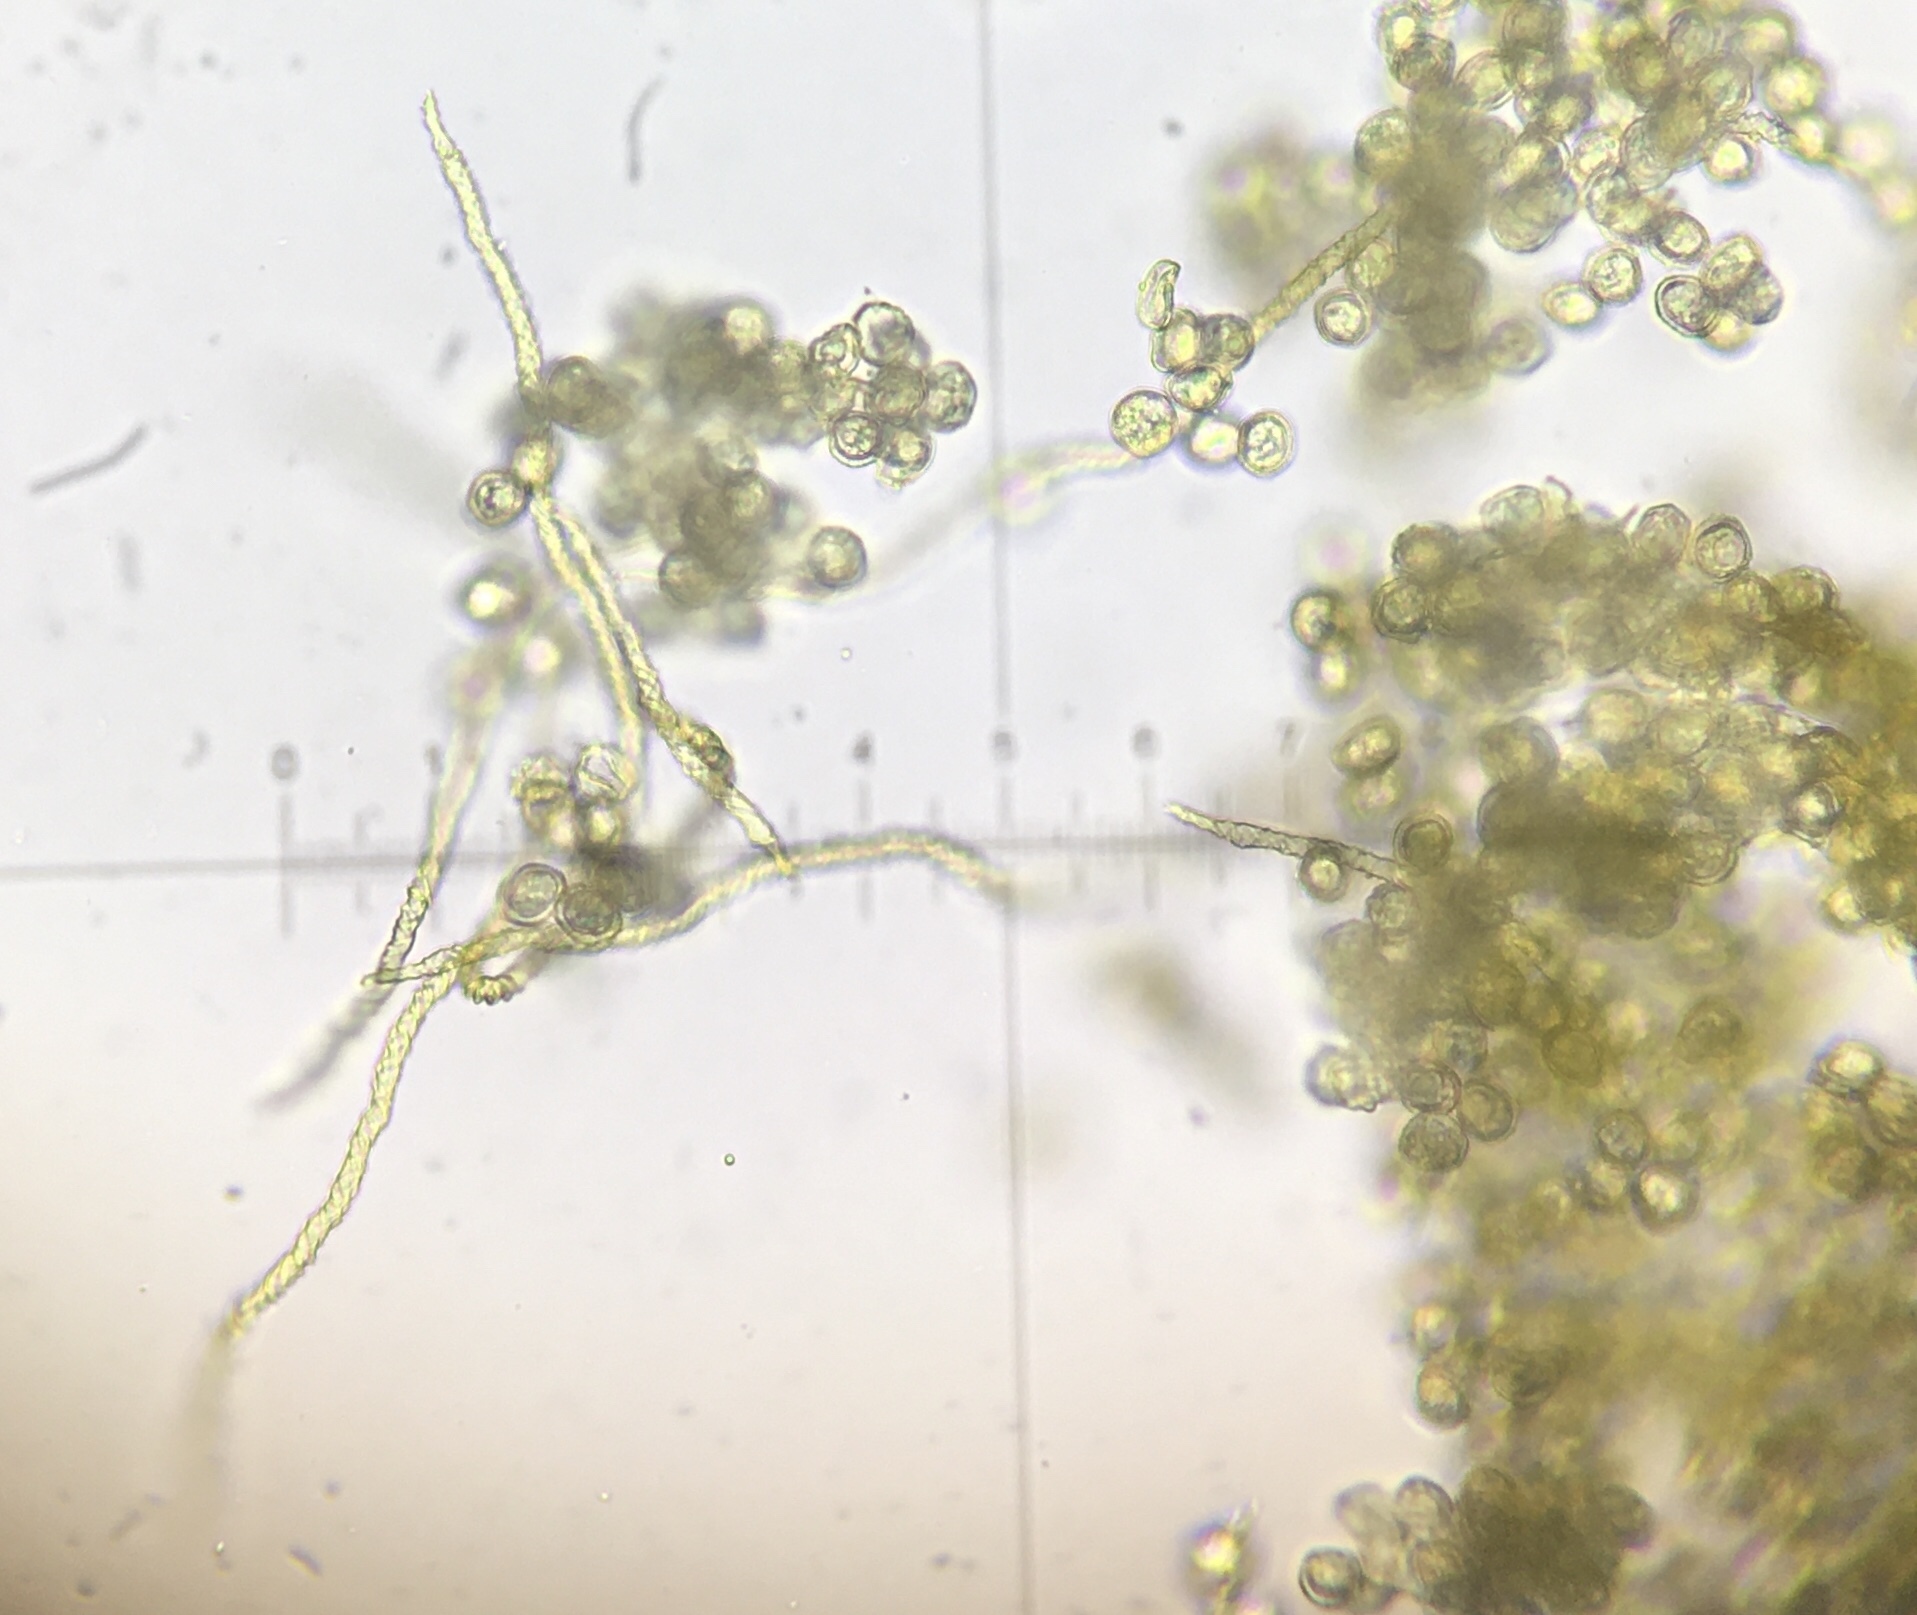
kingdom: Protozoa
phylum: Mycetozoa
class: Myxomycetes
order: Trichiales
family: Trichiaceae
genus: Trichia
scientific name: Trichia varia
